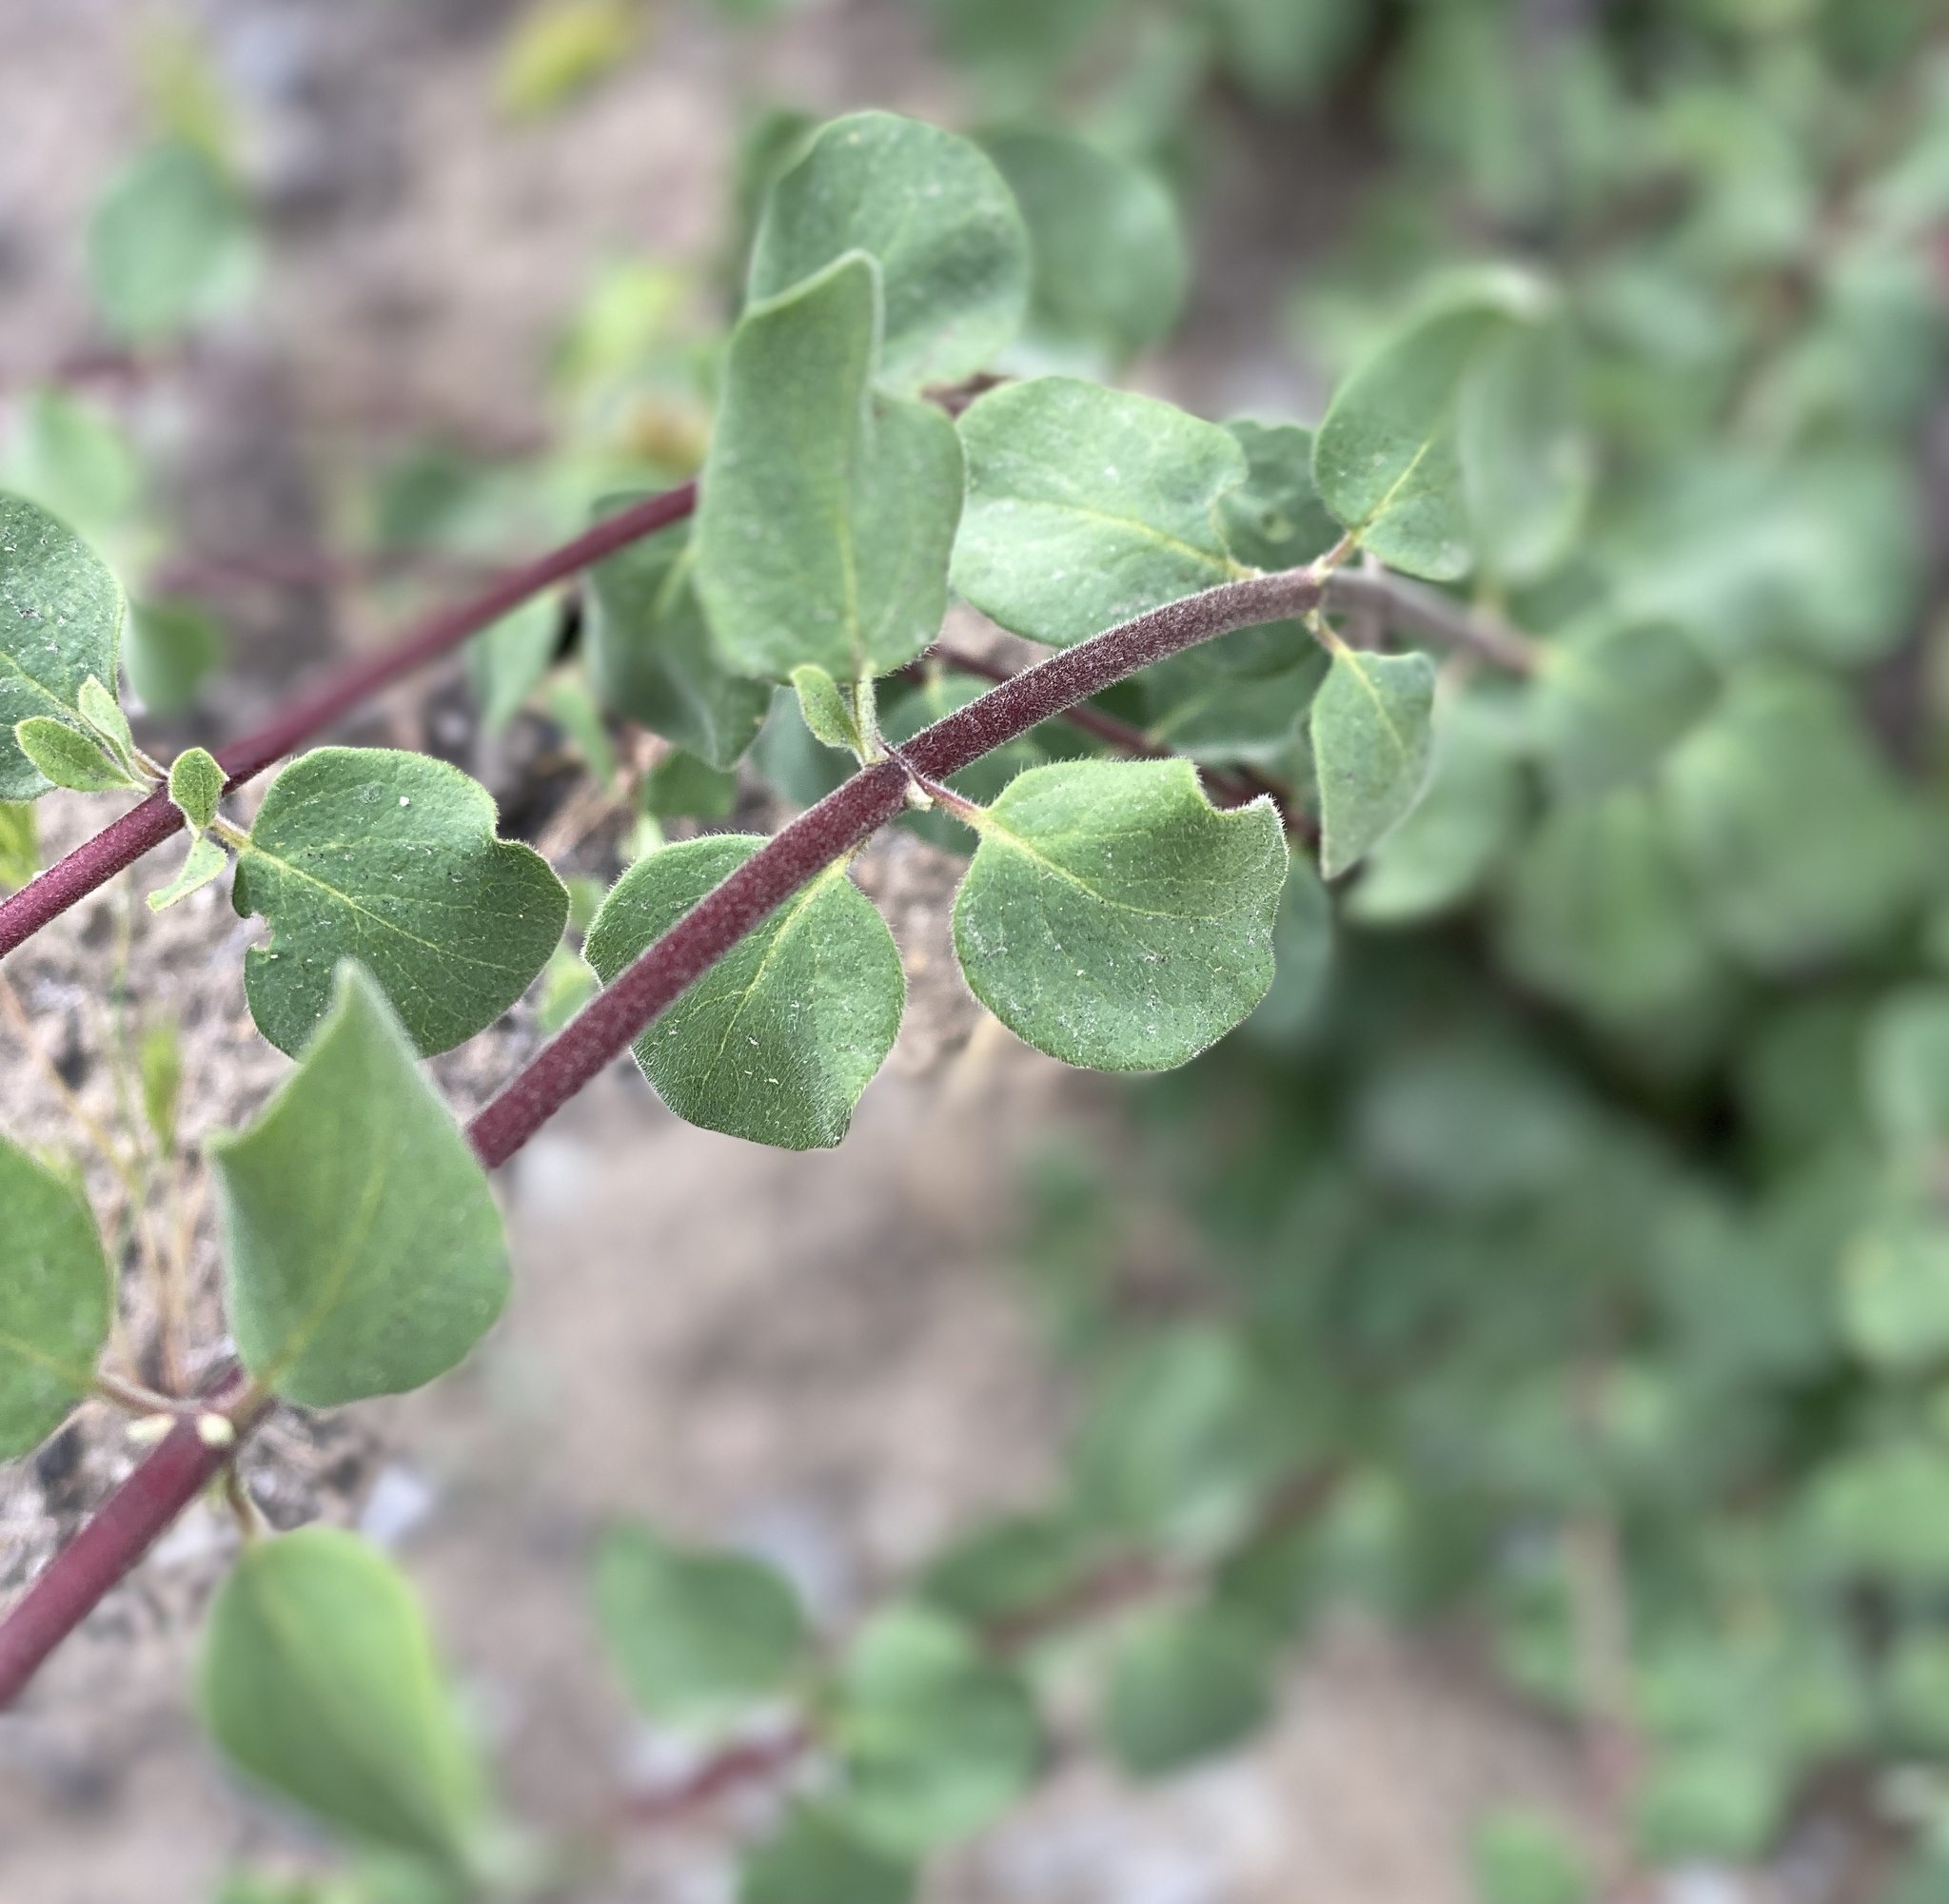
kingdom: Plantae
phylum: Tracheophyta
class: Magnoliopsida
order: Dipsacales
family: Caprifoliaceae
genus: Lonicera
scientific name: Lonicera subspicata
